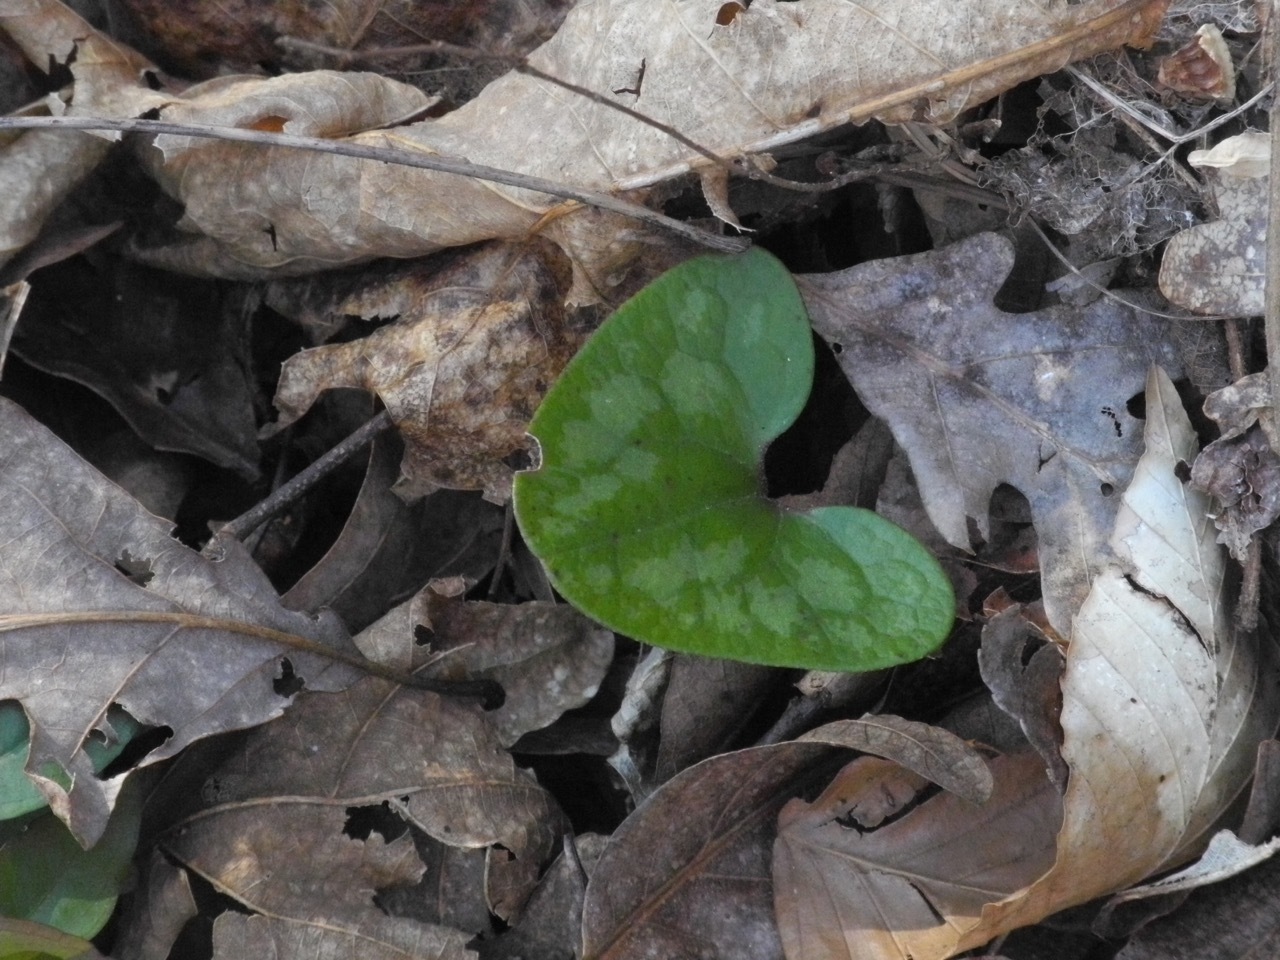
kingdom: Plantae
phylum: Tracheophyta
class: Magnoliopsida
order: Piperales
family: Aristolochiaceae
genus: Hexastylis
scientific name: Hexastylis arifolia
